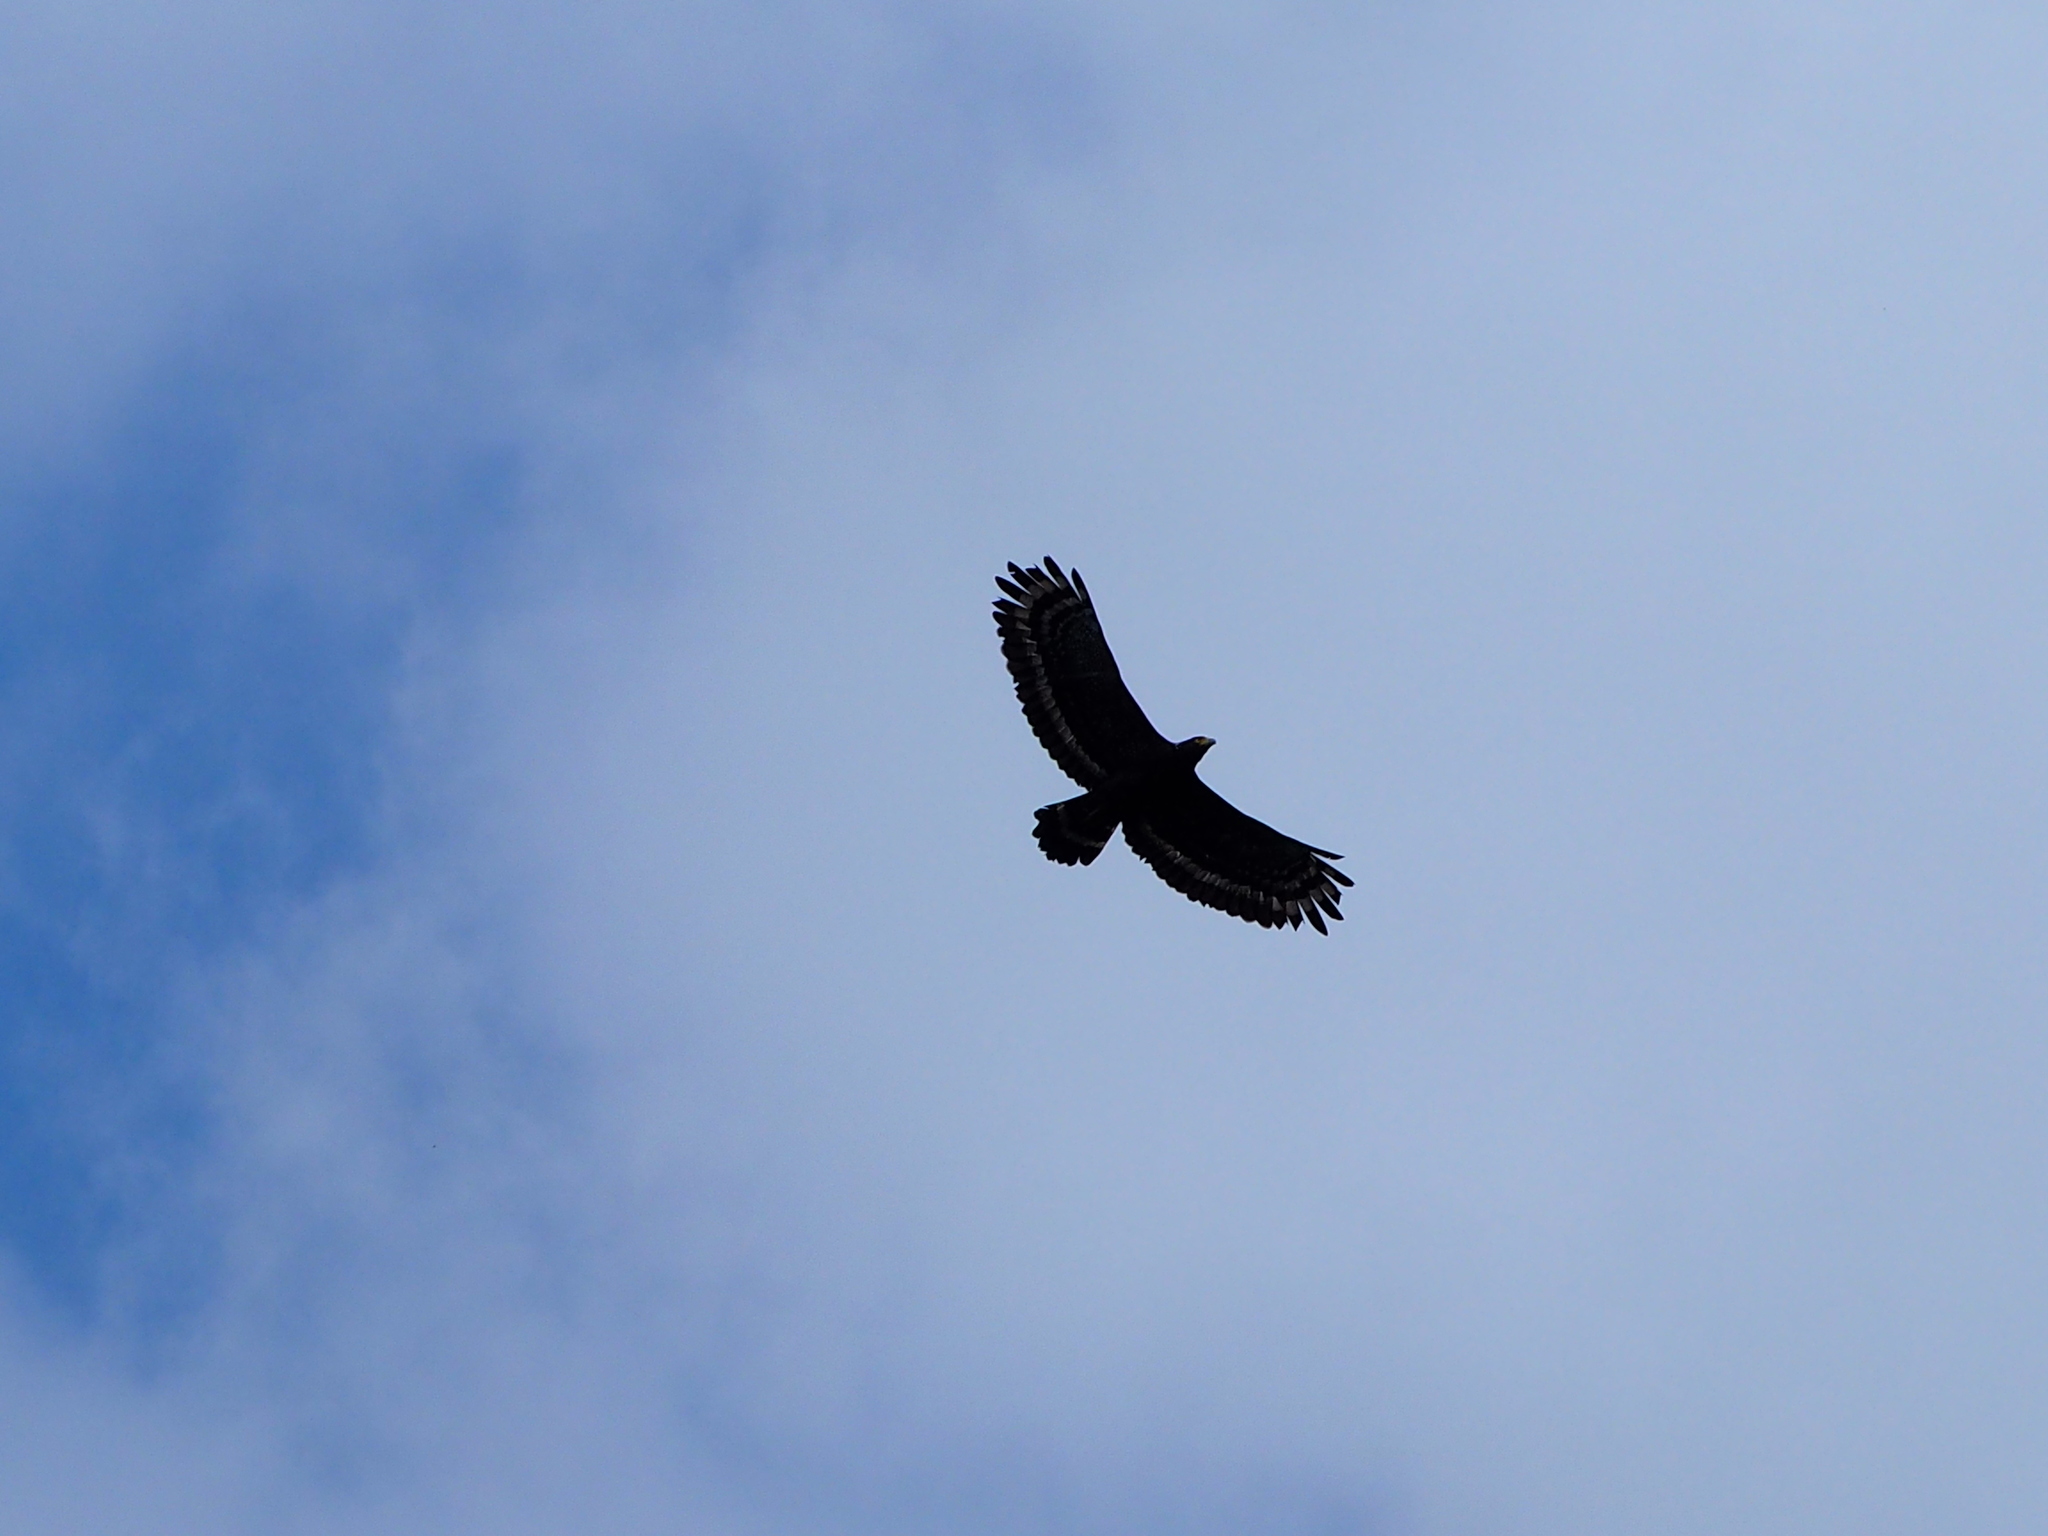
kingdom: Animalia
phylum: Chordata
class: Aves
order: Accipitriformes
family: Accipitridae
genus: Spilornis
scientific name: Spilornis cheela
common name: Crested serpent eagle
